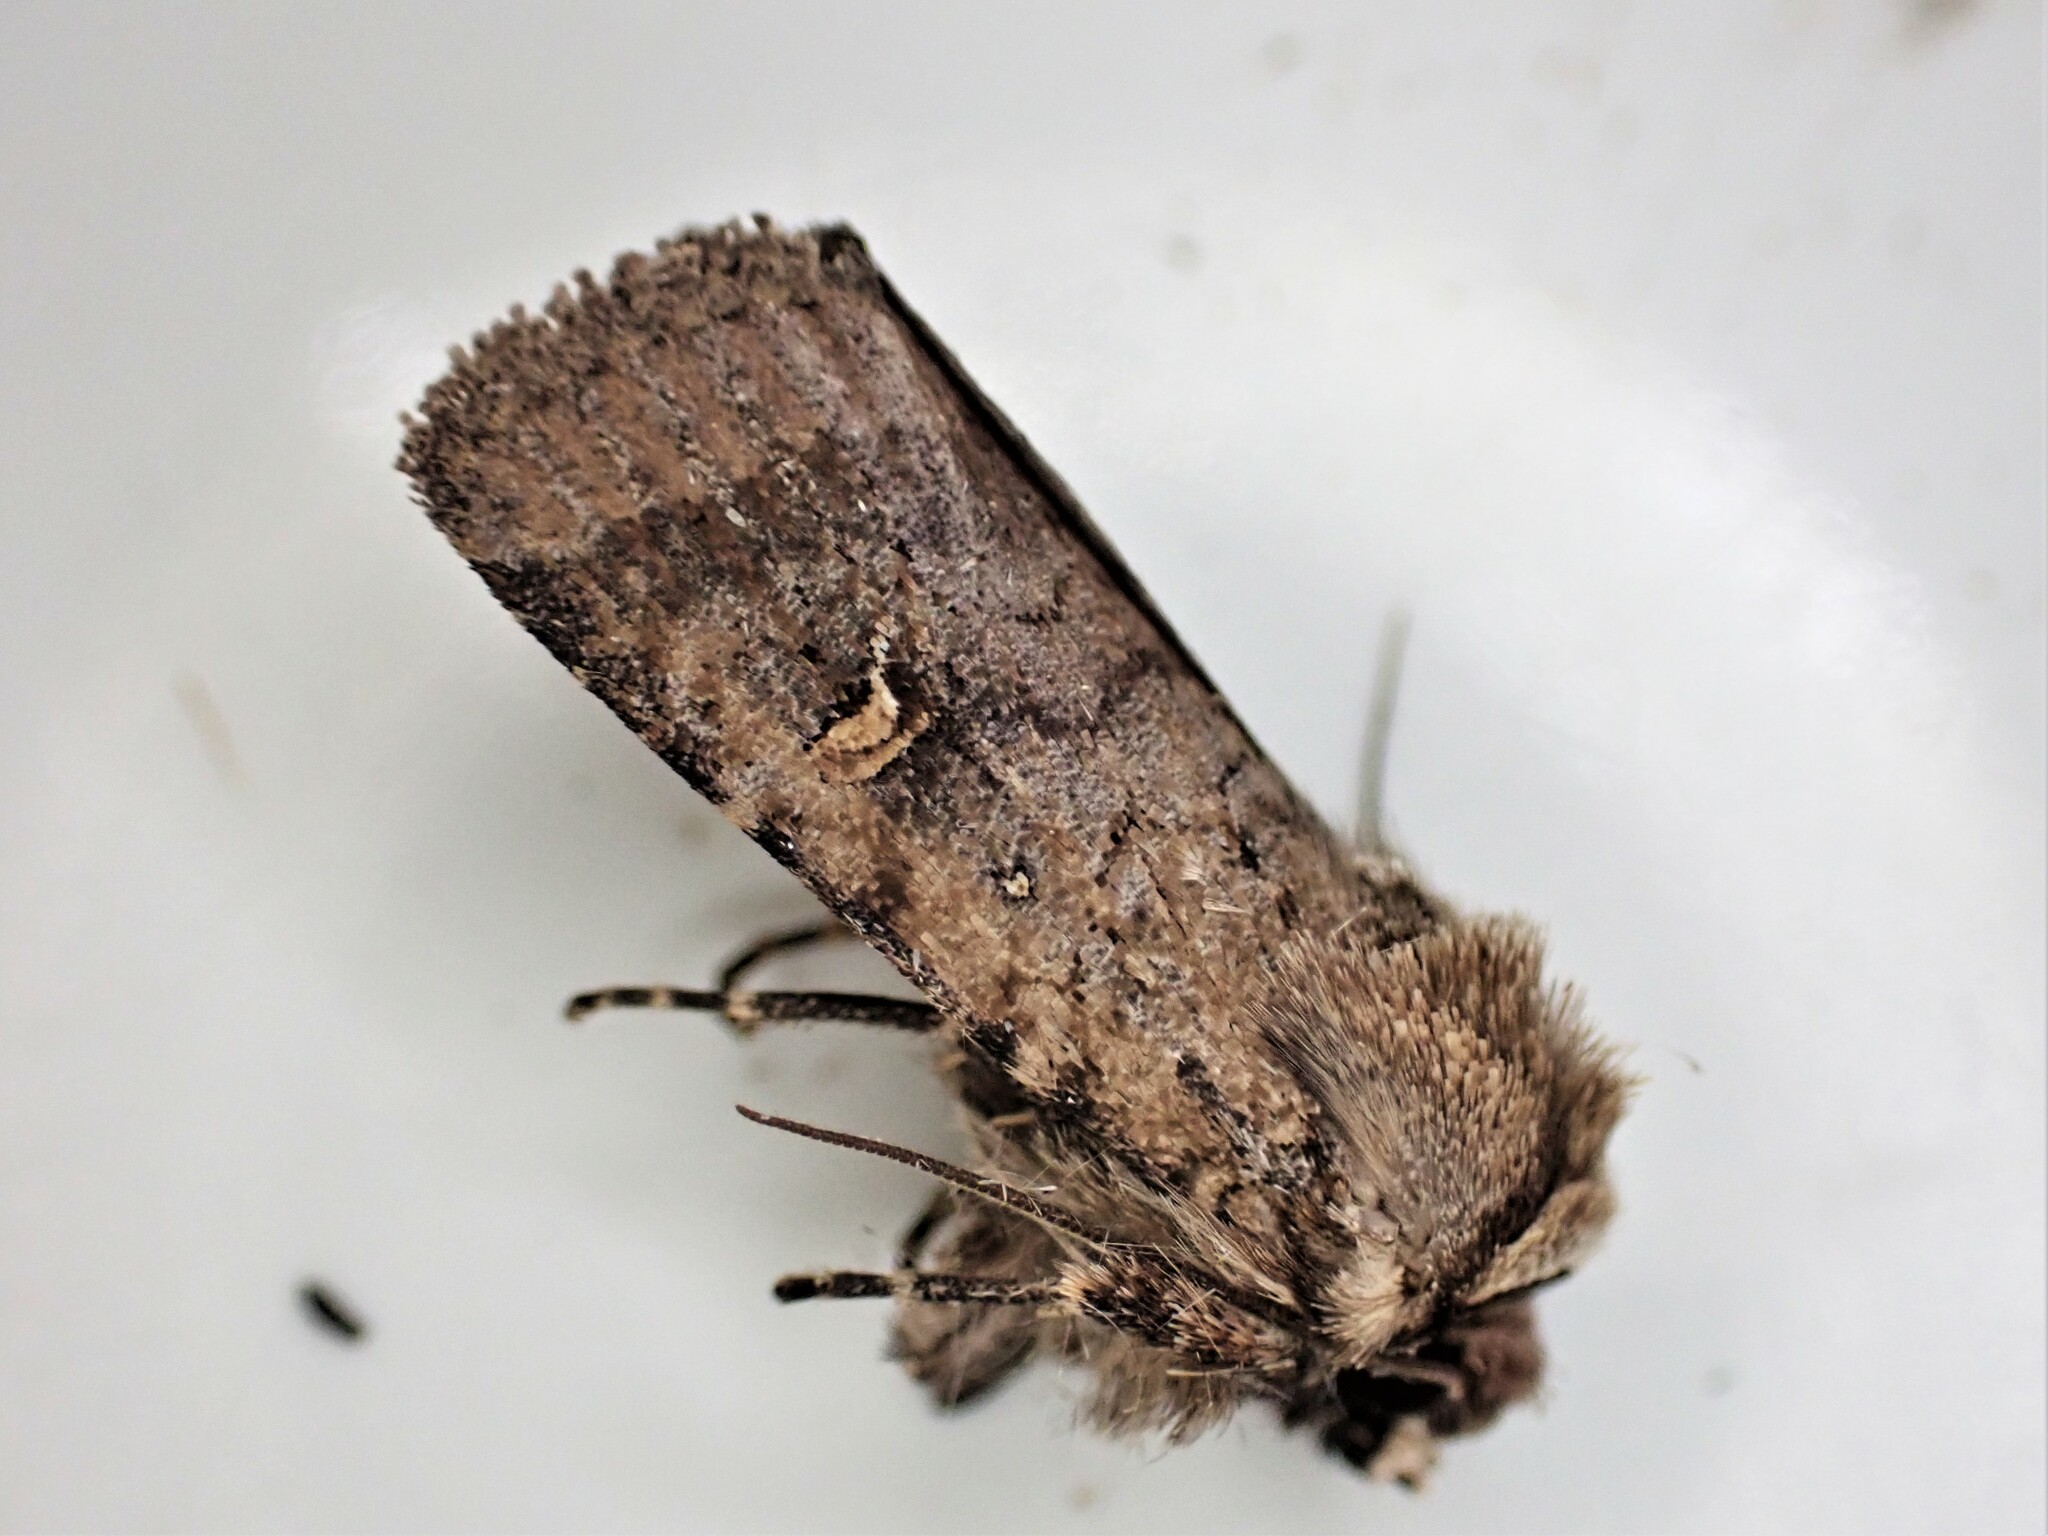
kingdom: Animalia
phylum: Arthropoda
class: Insecta
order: Lepidoptera
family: Noctuidae
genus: Proteuxoa
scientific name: Proteuxoa tetronycha
